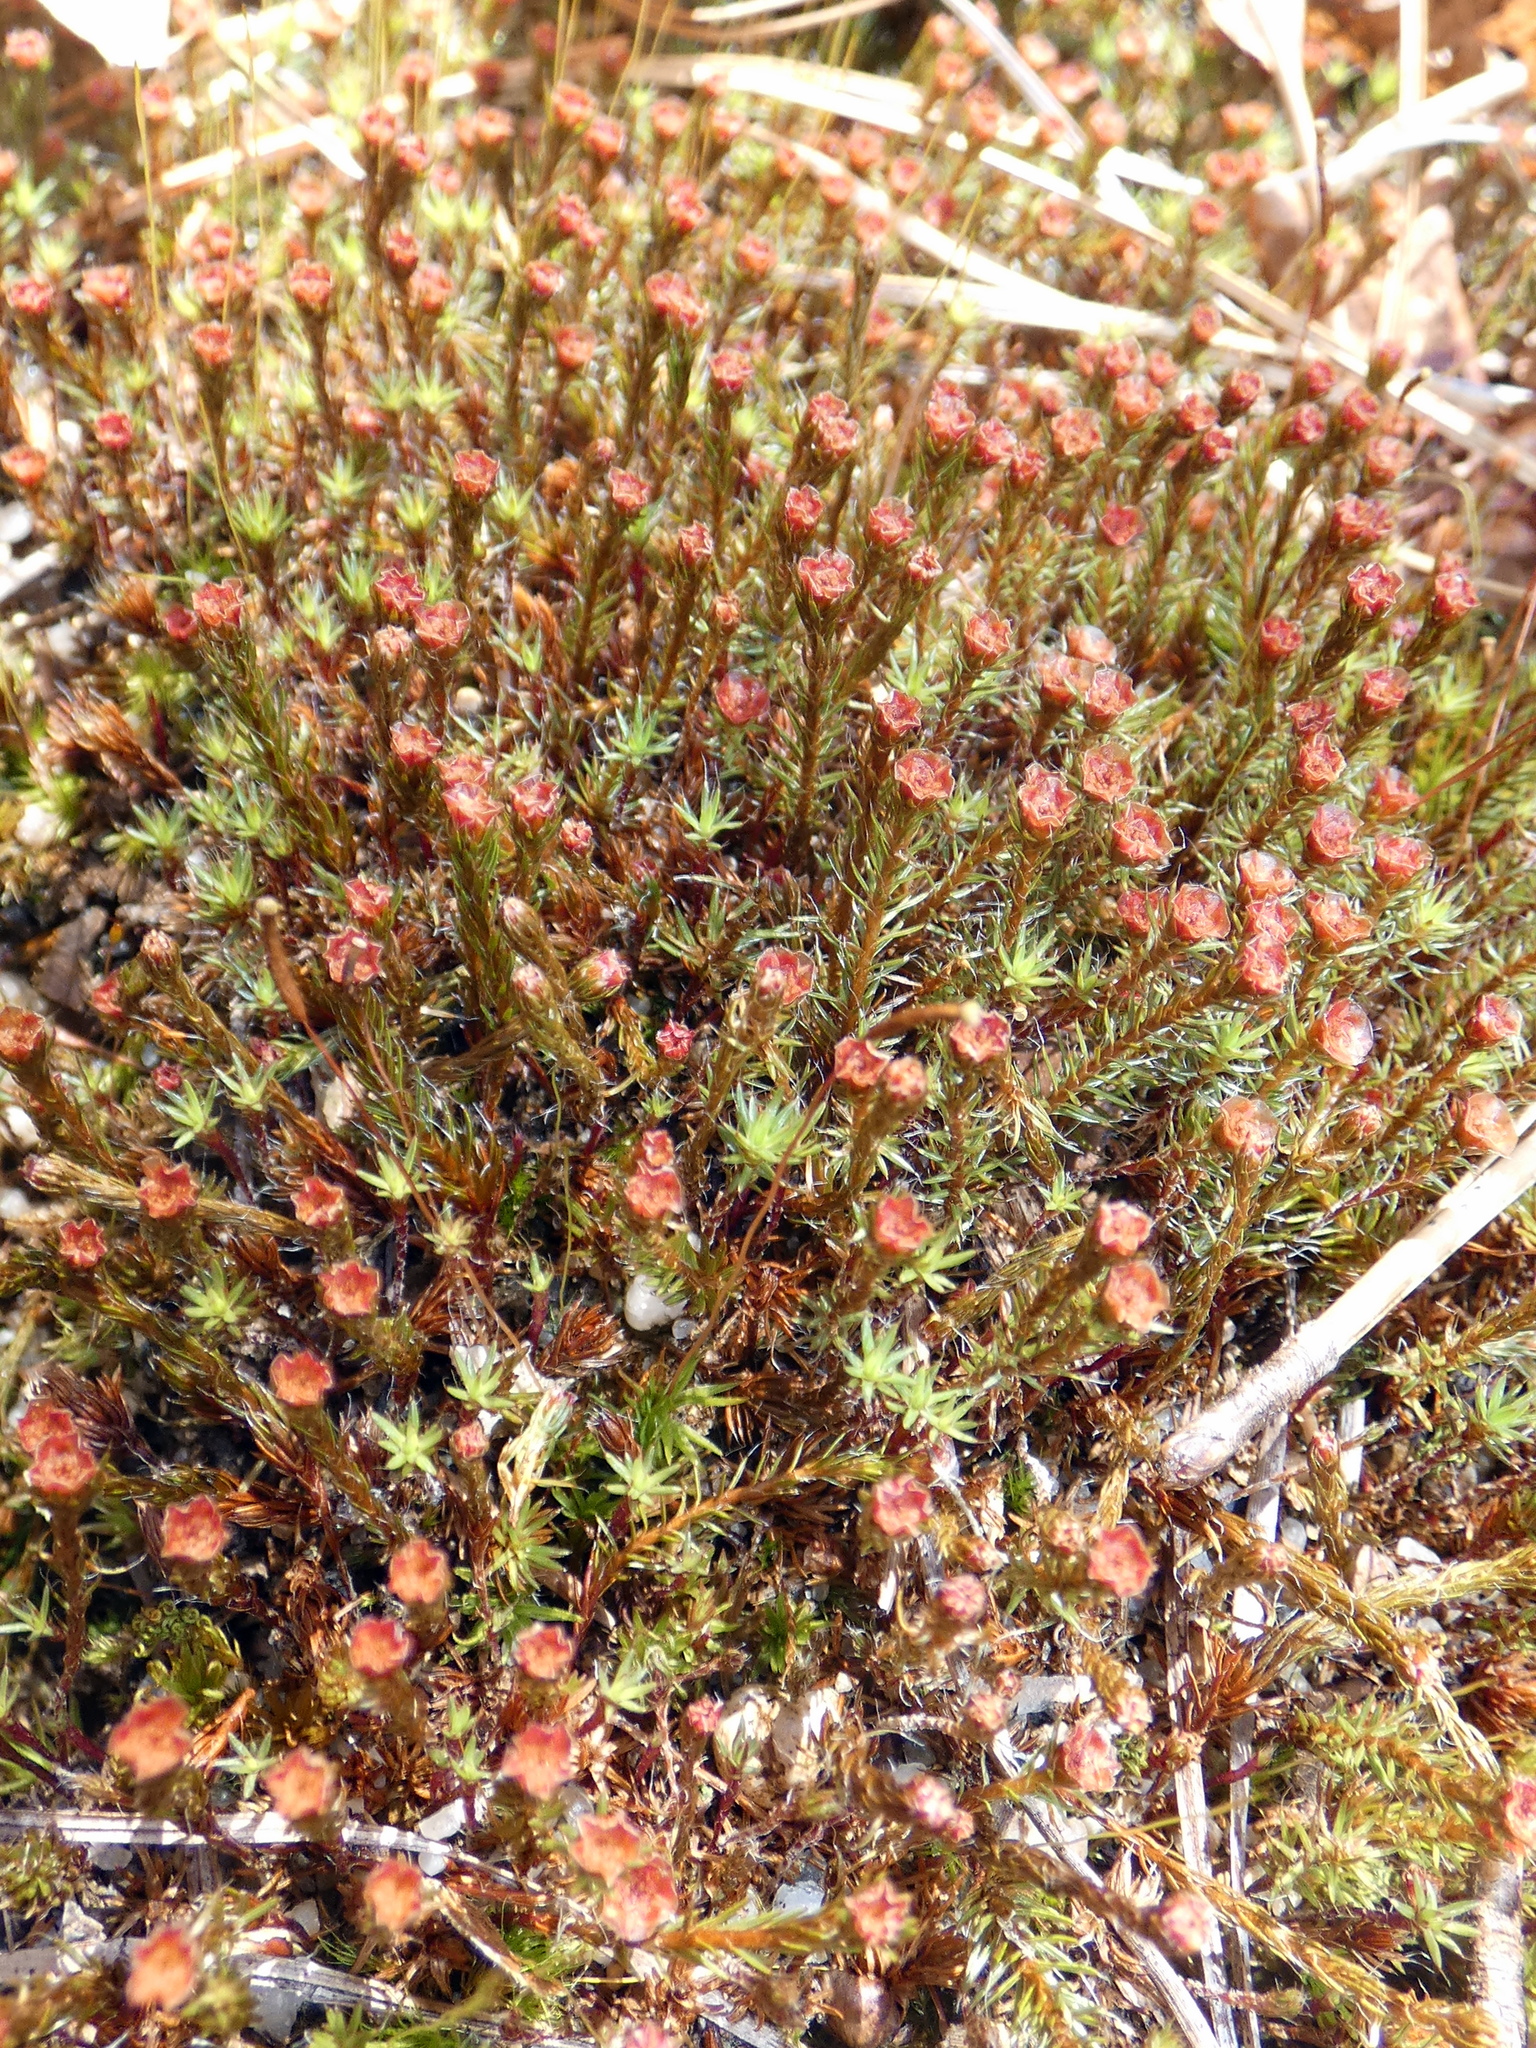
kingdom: Plantae
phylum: Bryophyta
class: Polytrichopsida
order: Polytrichales
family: Polytrichaceae
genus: Polytrichum
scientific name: Polytrichum piliferum
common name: Bristly haircap
